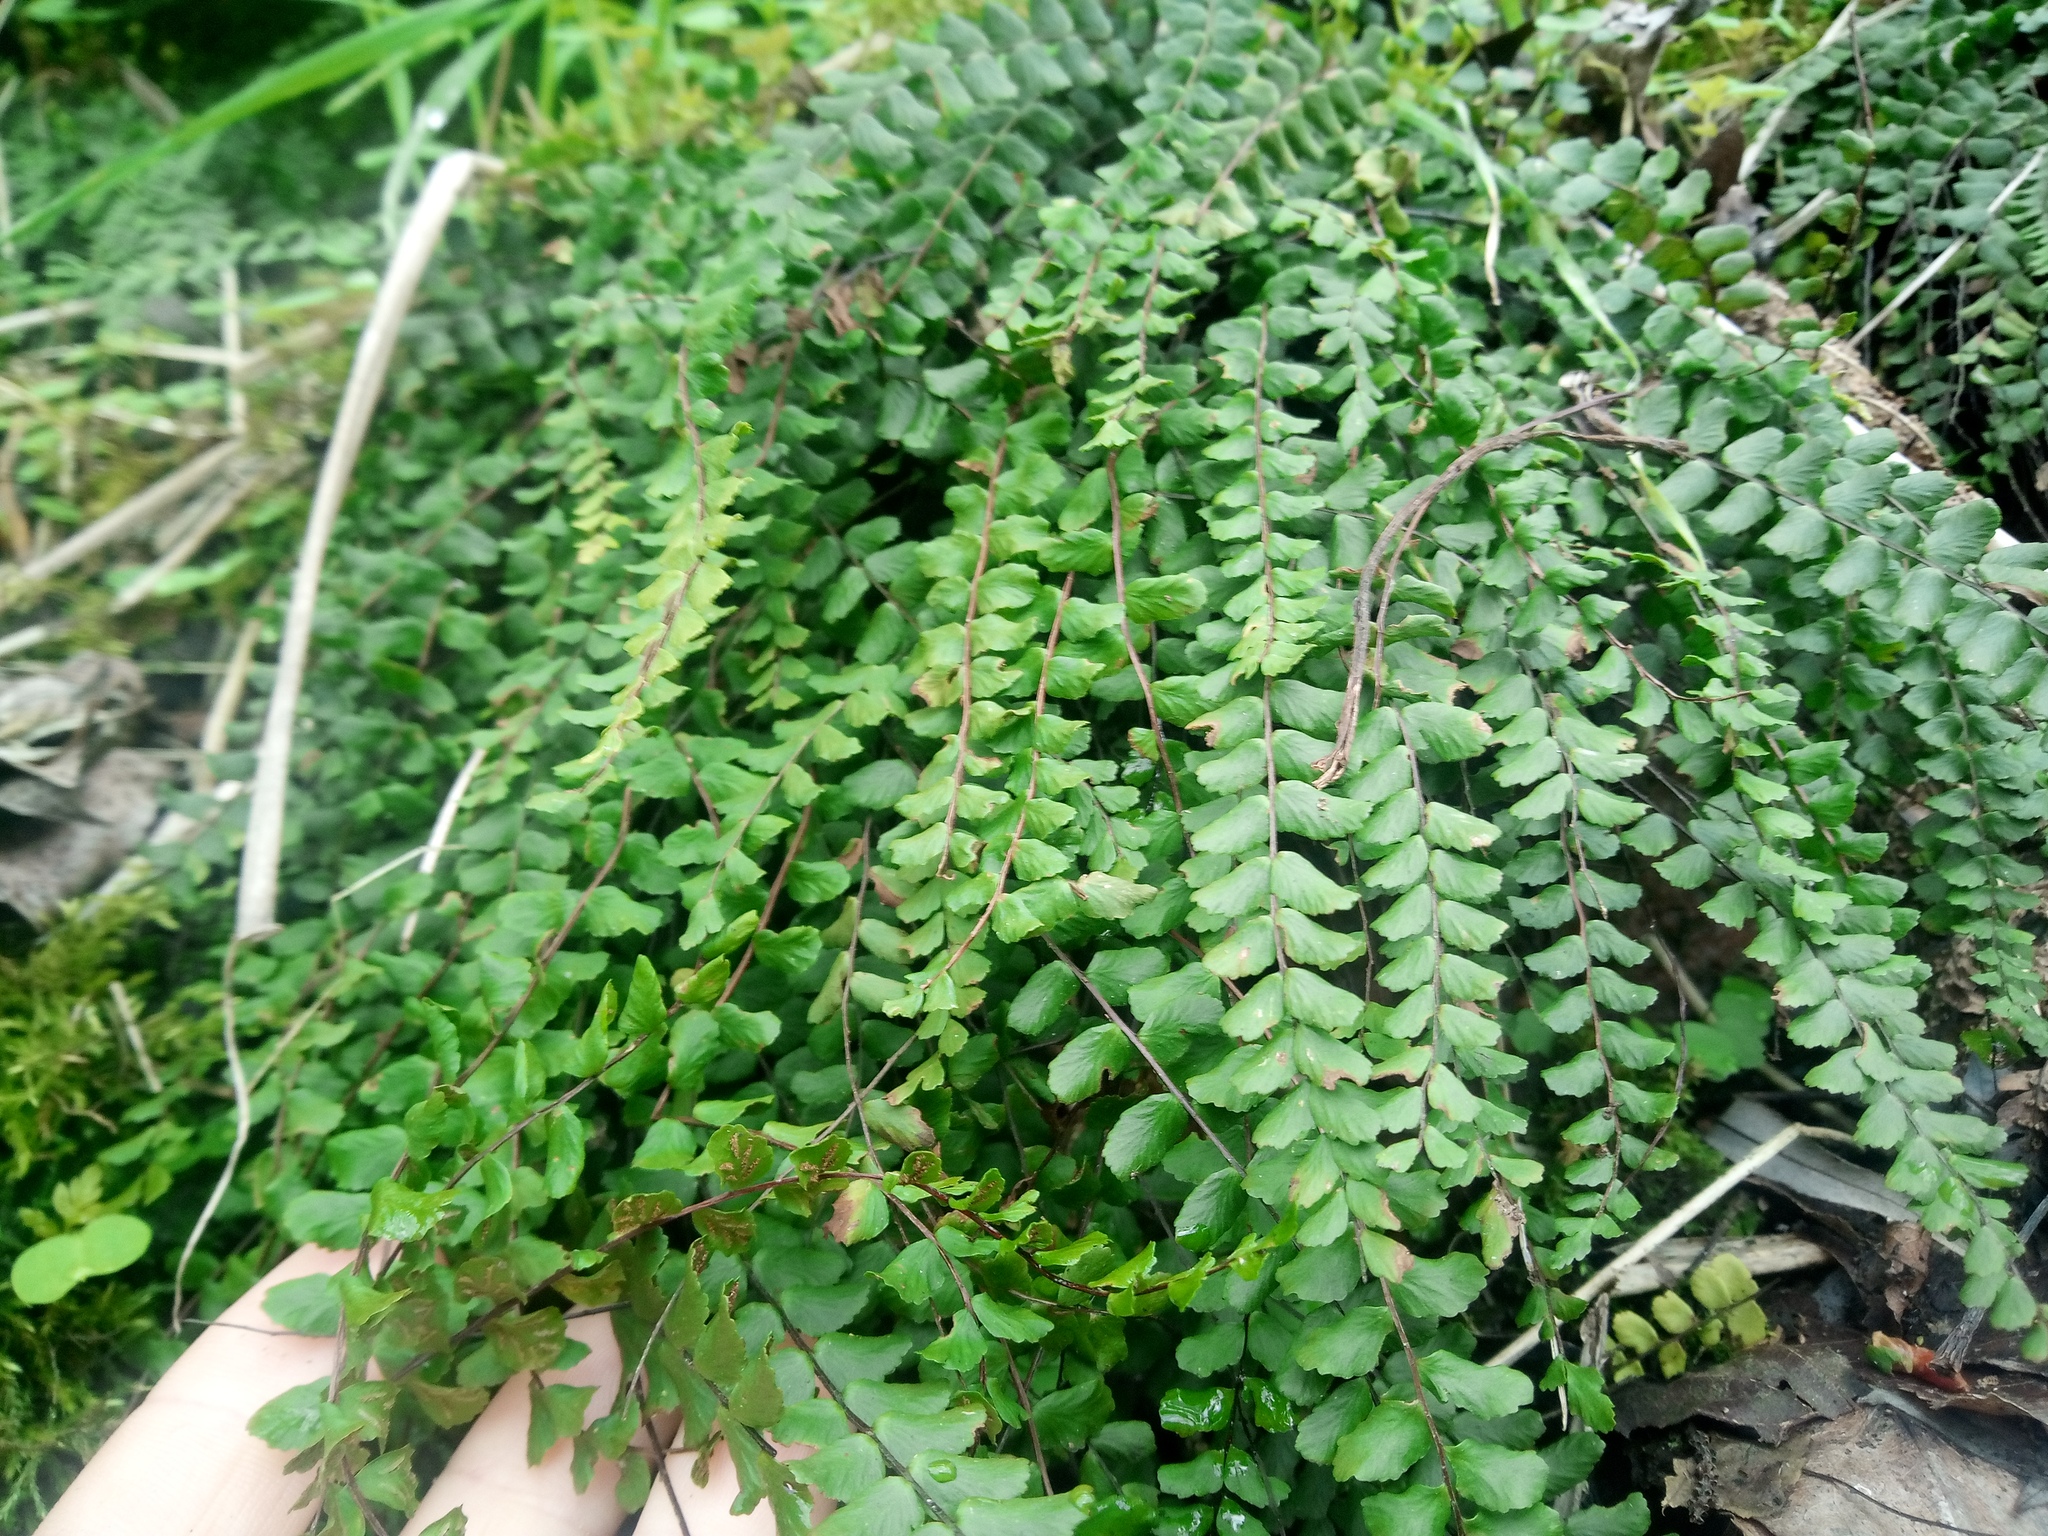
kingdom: Plantae
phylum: Tracheophyta
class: Polypodiopsida
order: Polypodiales
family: Aspleniaceae
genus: Asplenium
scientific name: Asplenium trichomanes
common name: Maidenhair spleenwort
